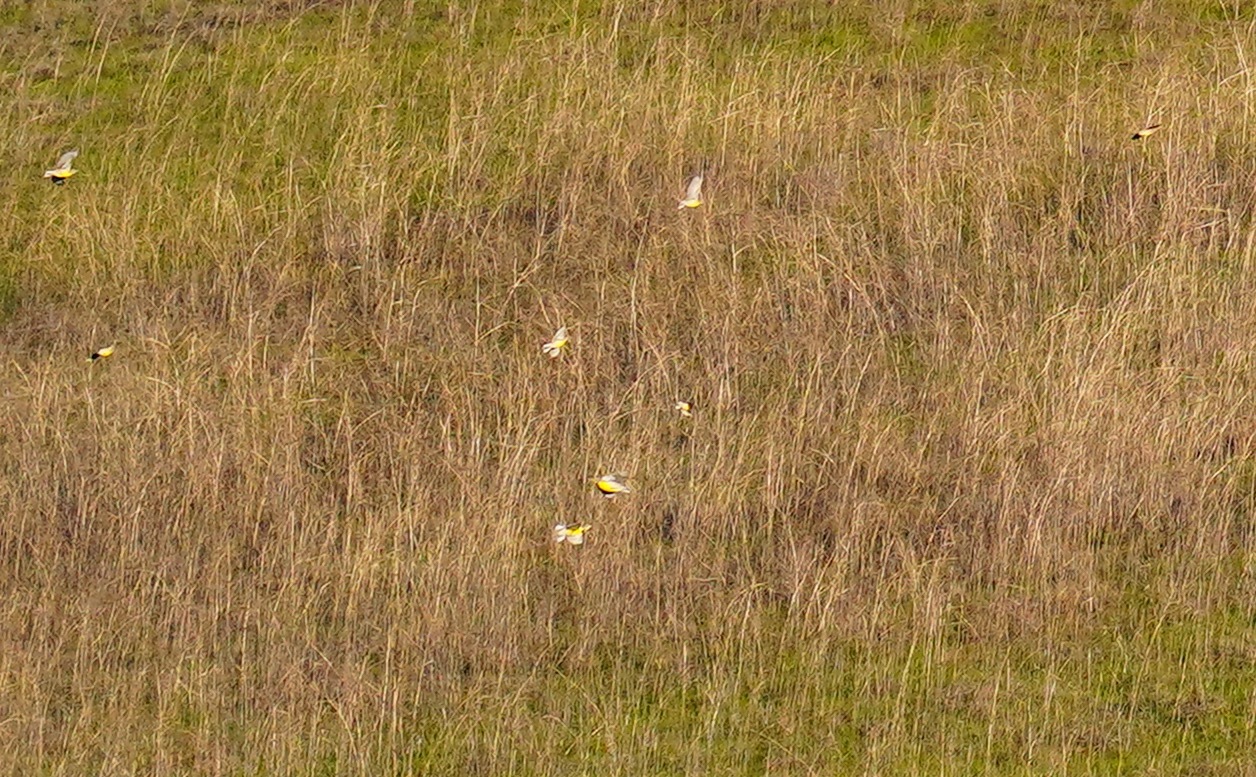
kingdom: Animalia
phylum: Chordata
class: Aves
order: Passeriformes
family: Icteridae
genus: Sturnella
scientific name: Sturnella neglecta
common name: Western meadowlark
